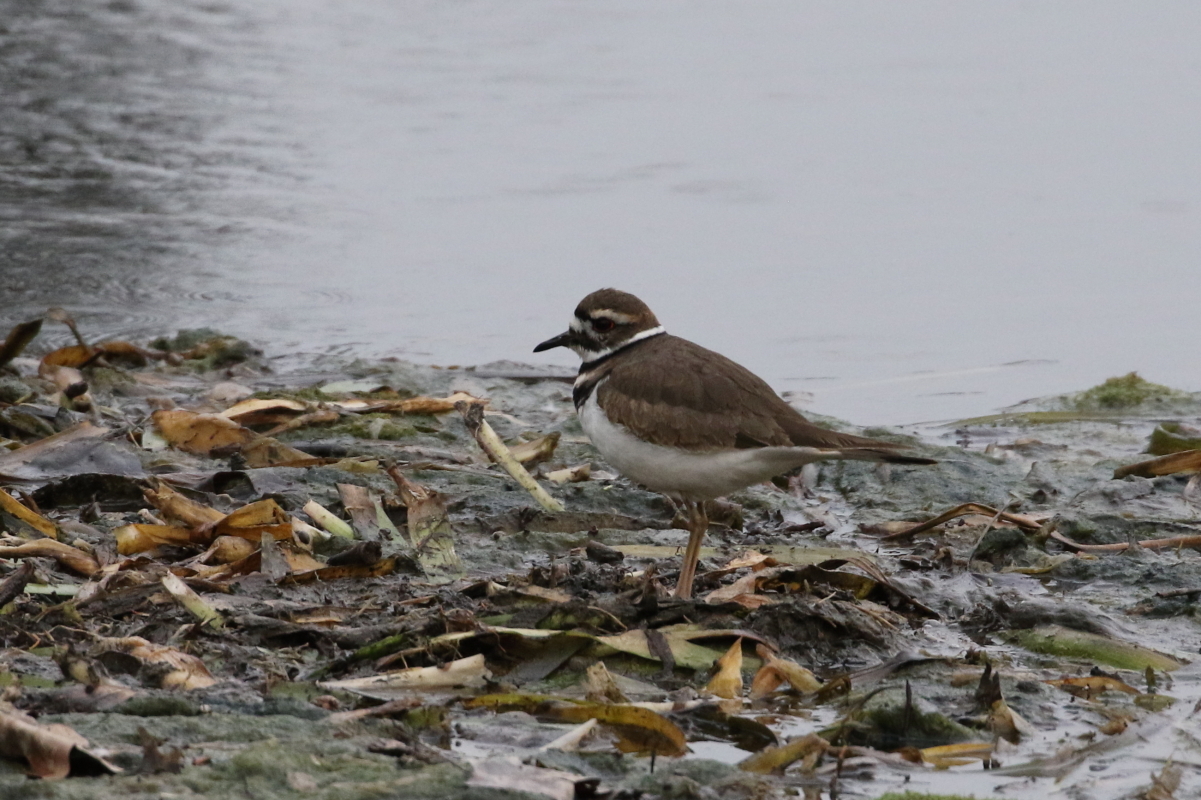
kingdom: Animalia
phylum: Chordata
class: Aves
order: Charadriiformes
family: Charadriidae
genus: Charadrius
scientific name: Charadrius vociferus
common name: Killdeer
